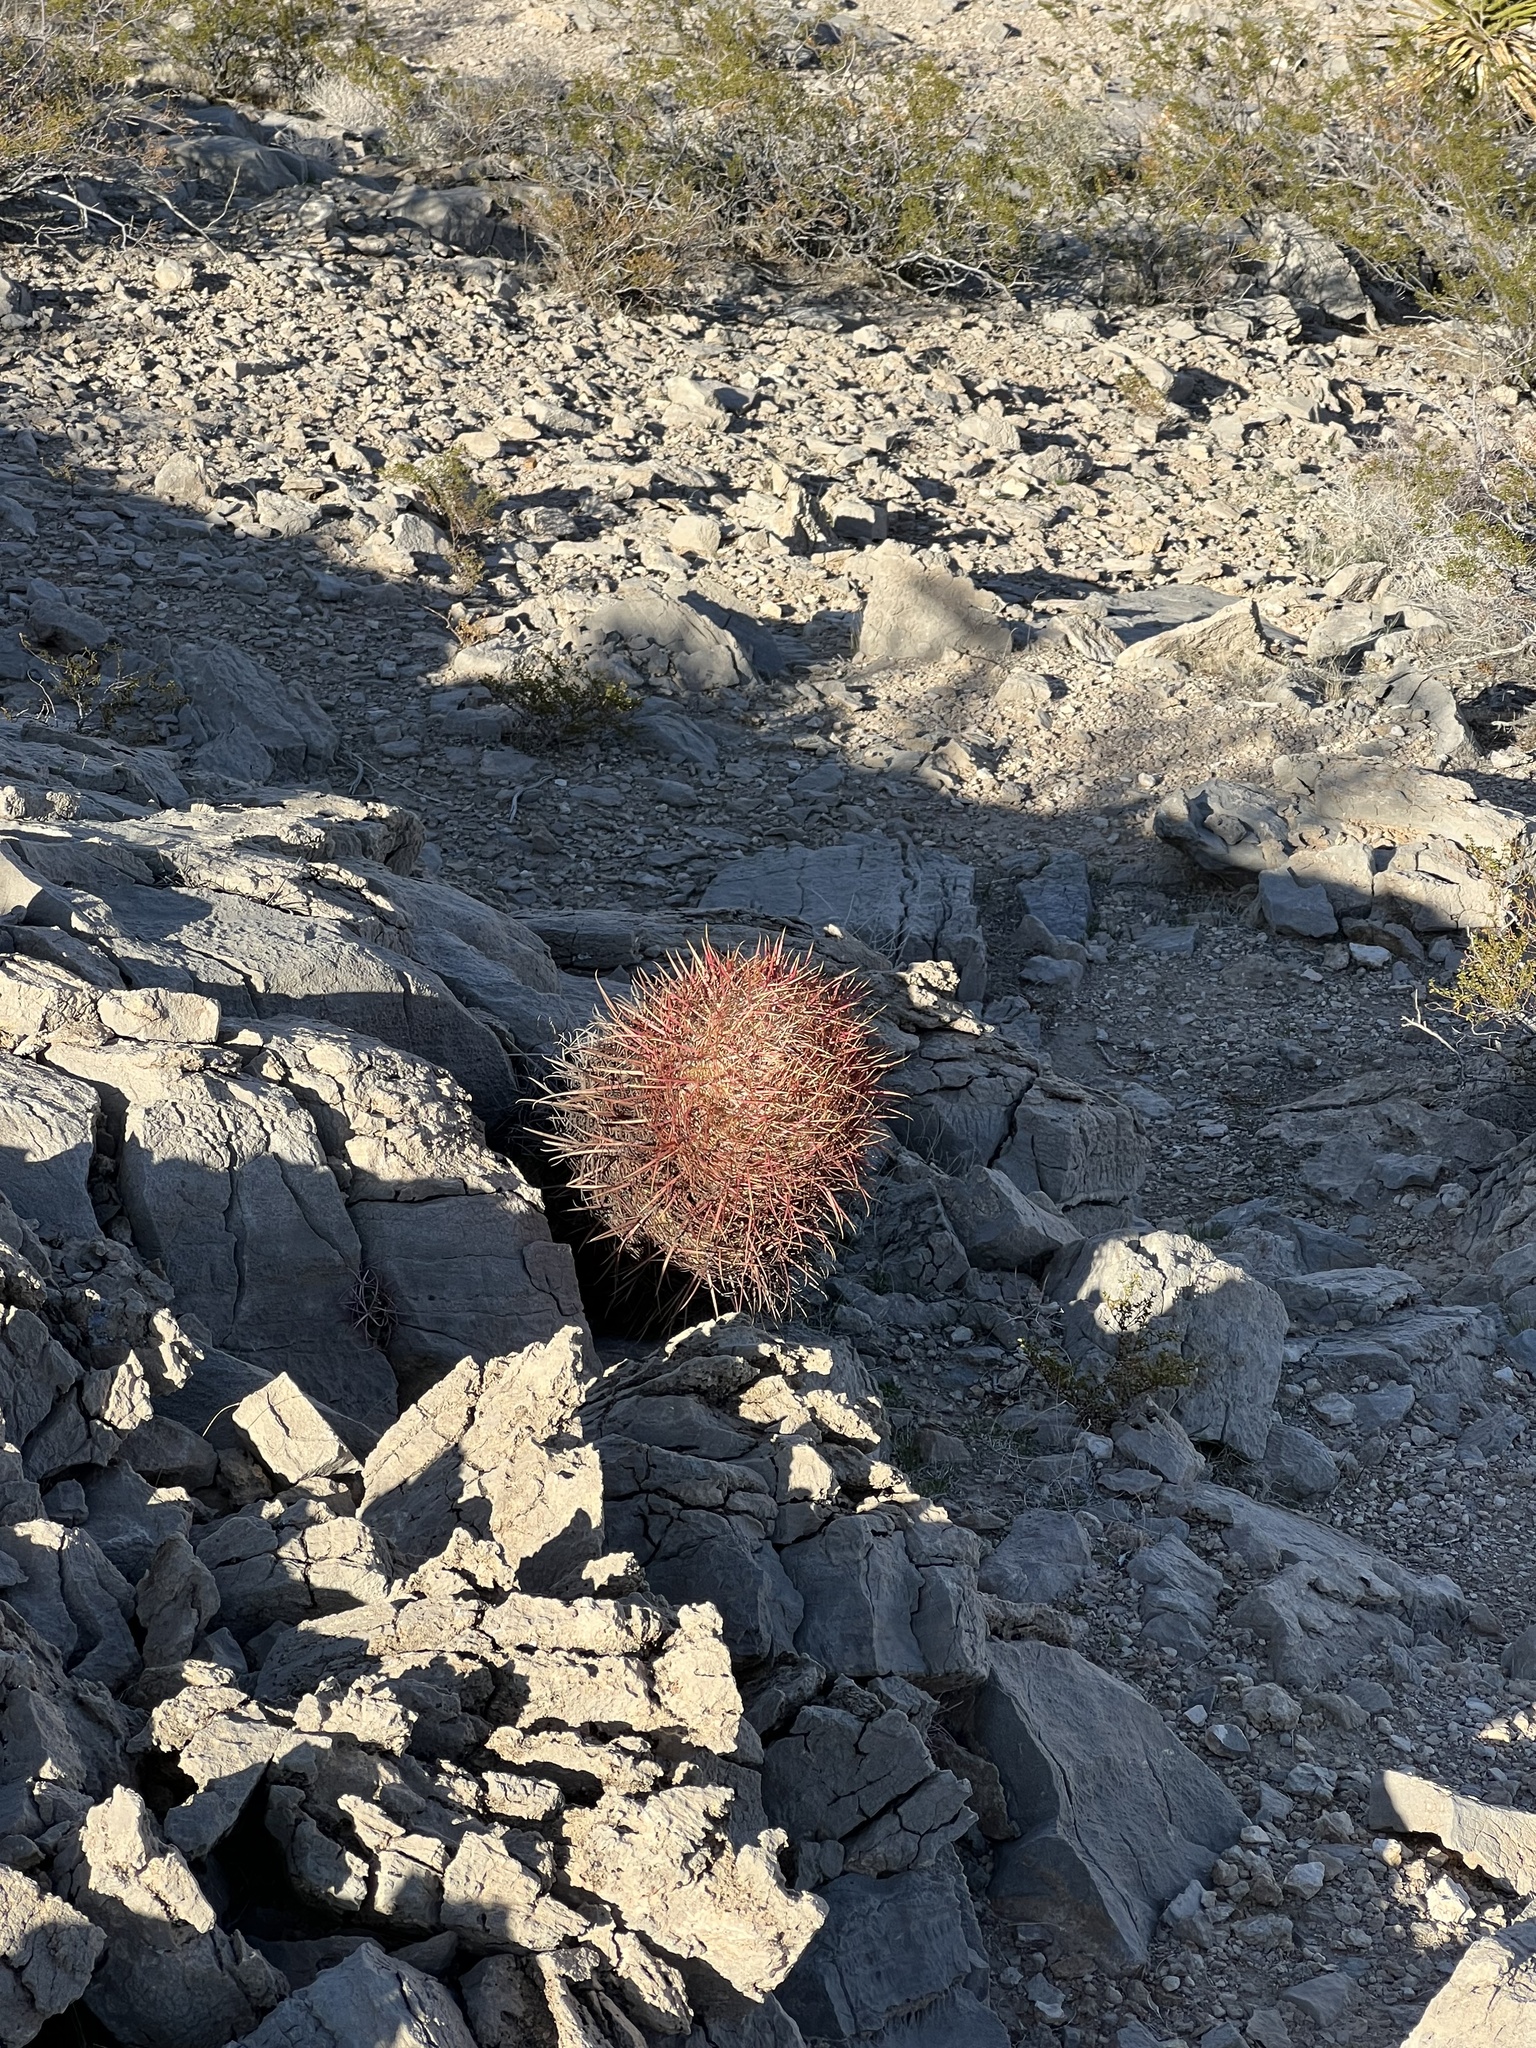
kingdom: Plantae
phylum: Tracheophyta
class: Magnoliopsida
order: Caryophyllales
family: Cactaceae
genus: Ferocactus
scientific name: Ferocactus cylindraceus
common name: California barrel cactus
